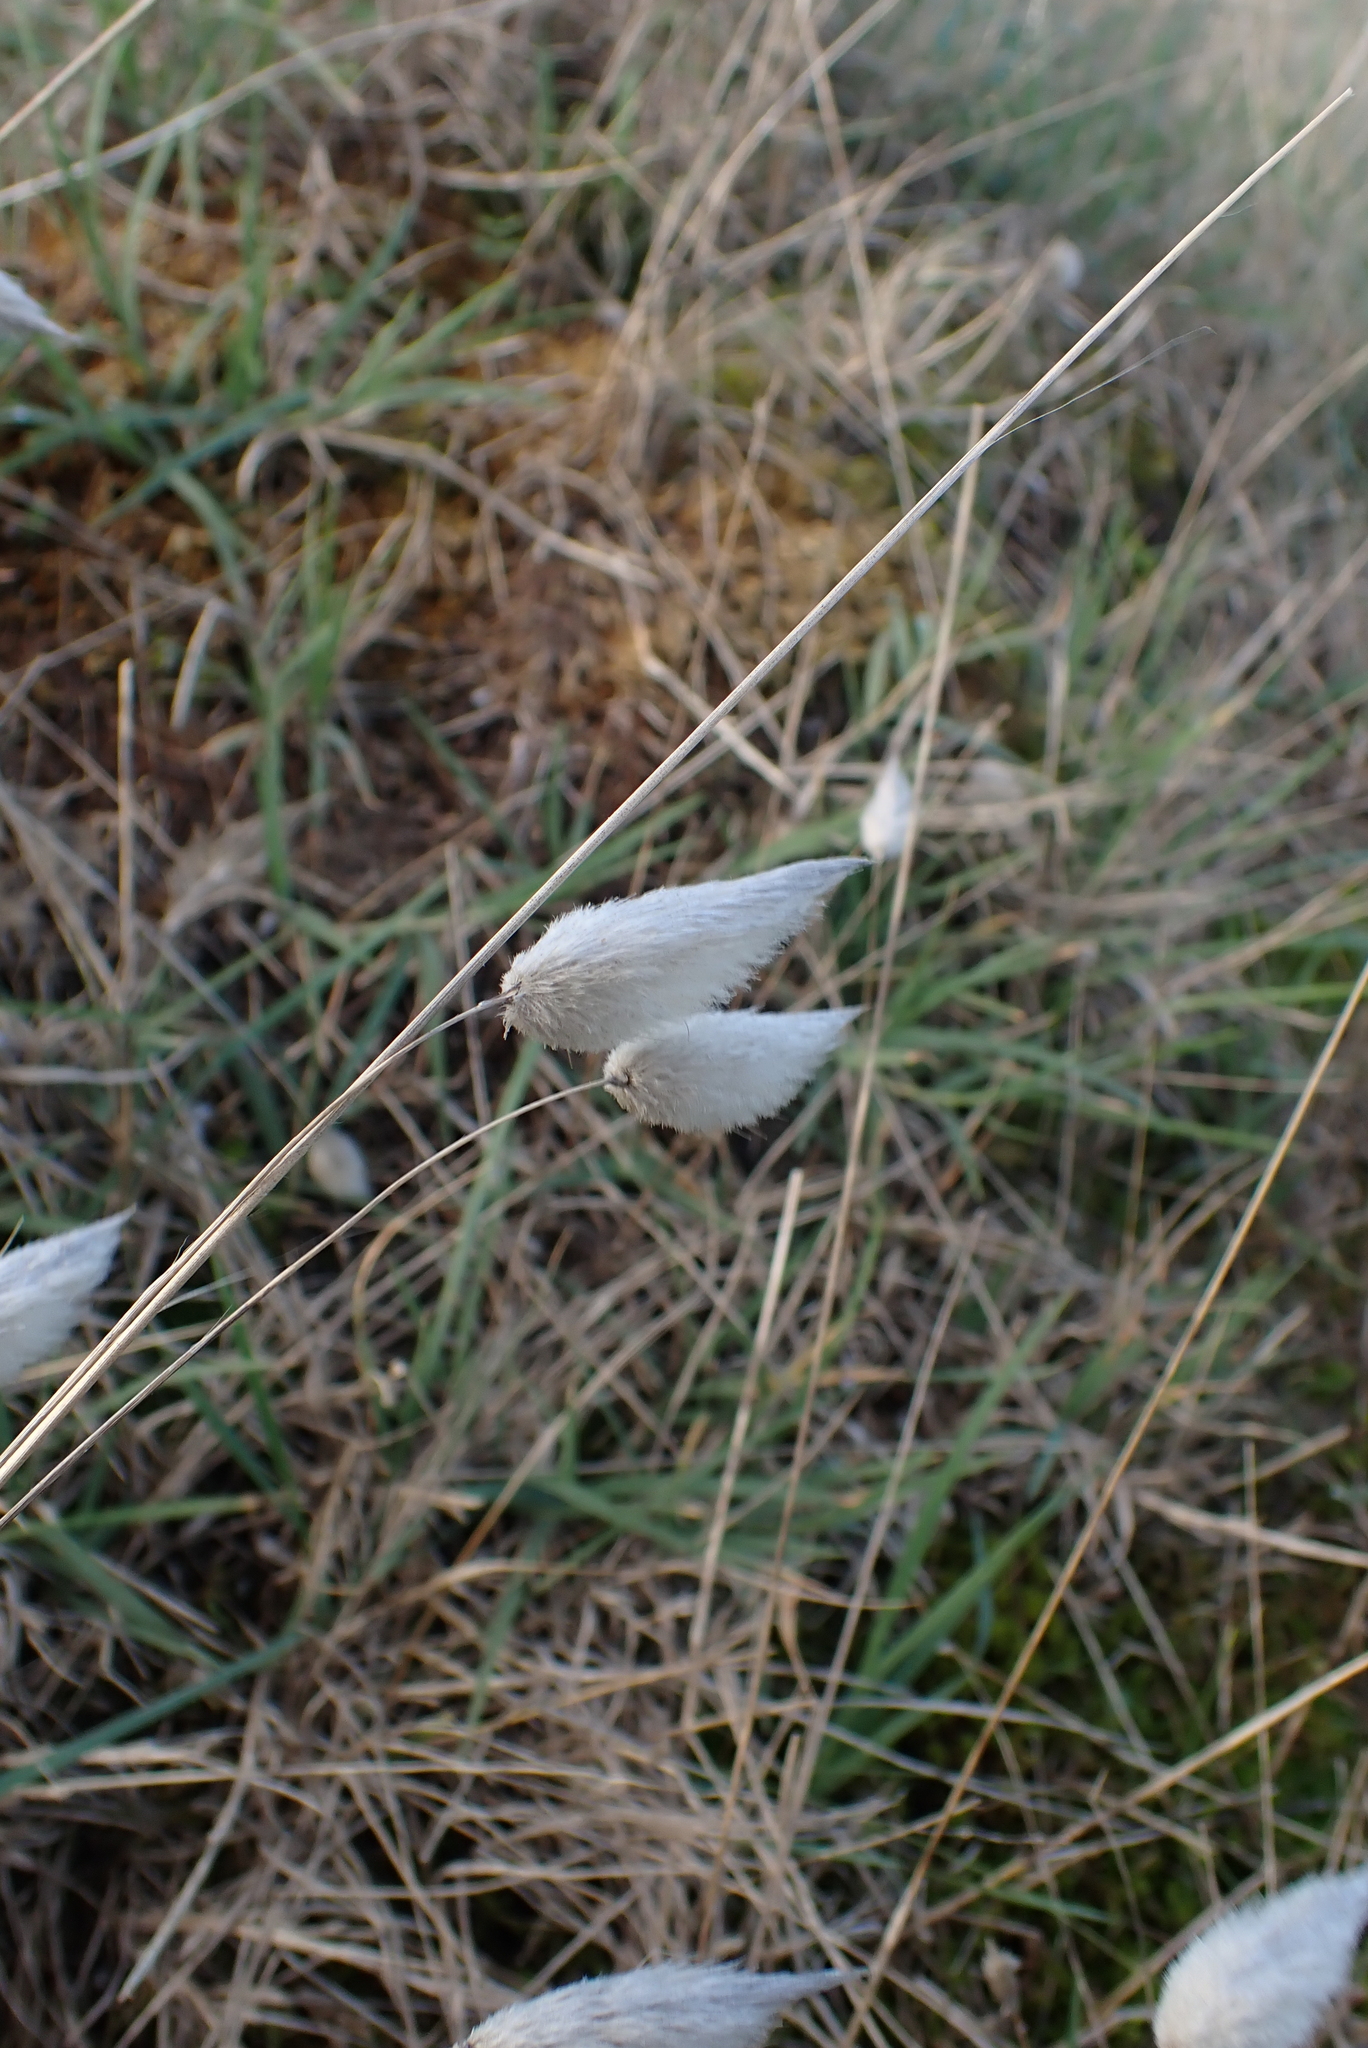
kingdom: Plantae
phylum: Tracheophyta
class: Liliopsida
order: Poales
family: Poaceae
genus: Lagurus
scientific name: Lagurus ovatus
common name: Hare's-tail
